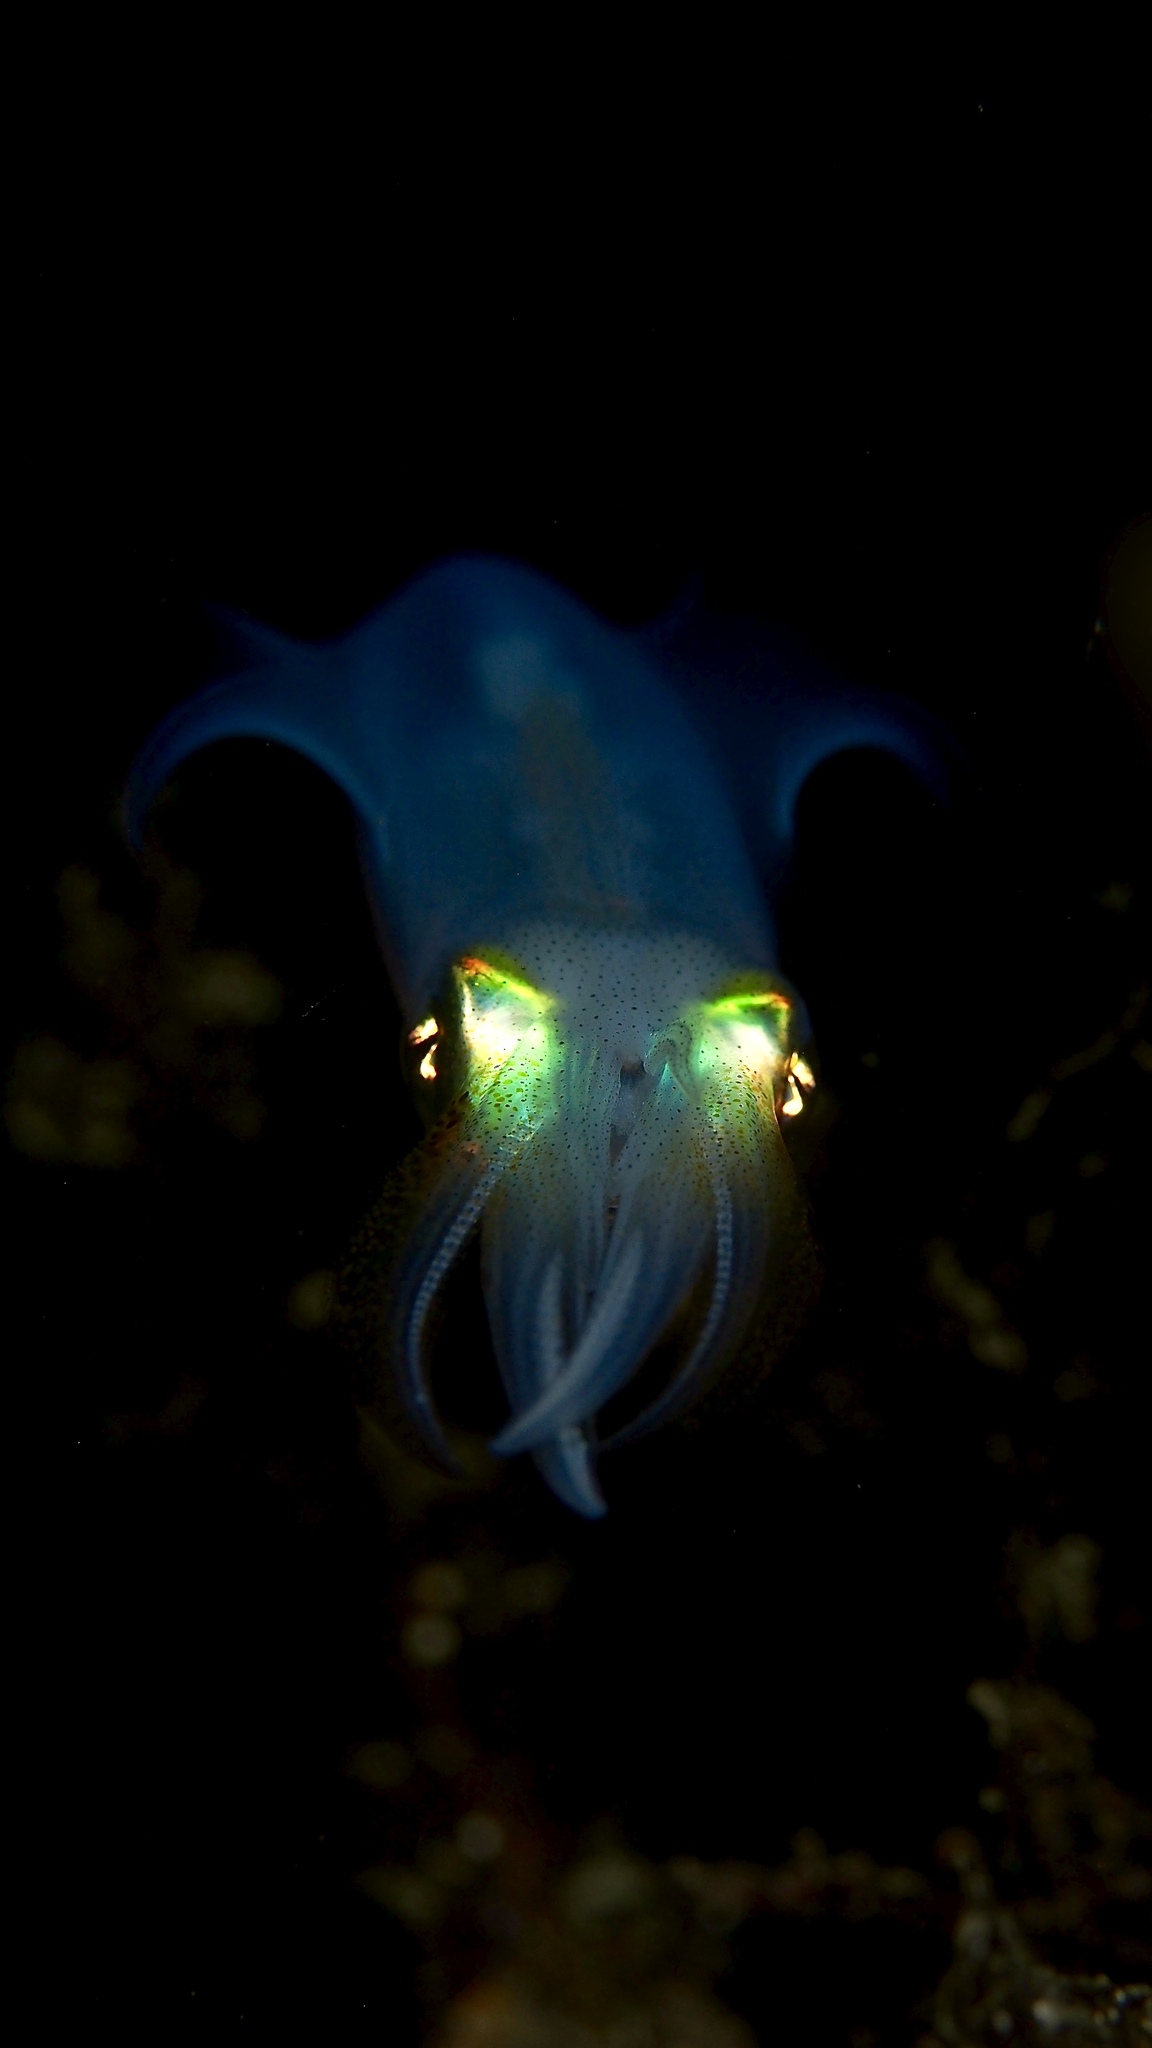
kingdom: Animalia
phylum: Mollusca
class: Cephalopoda
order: Myopsida
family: Loliginidae
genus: Sepioteuthis
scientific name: Sepioteuthis australis
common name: Southern reef squid
